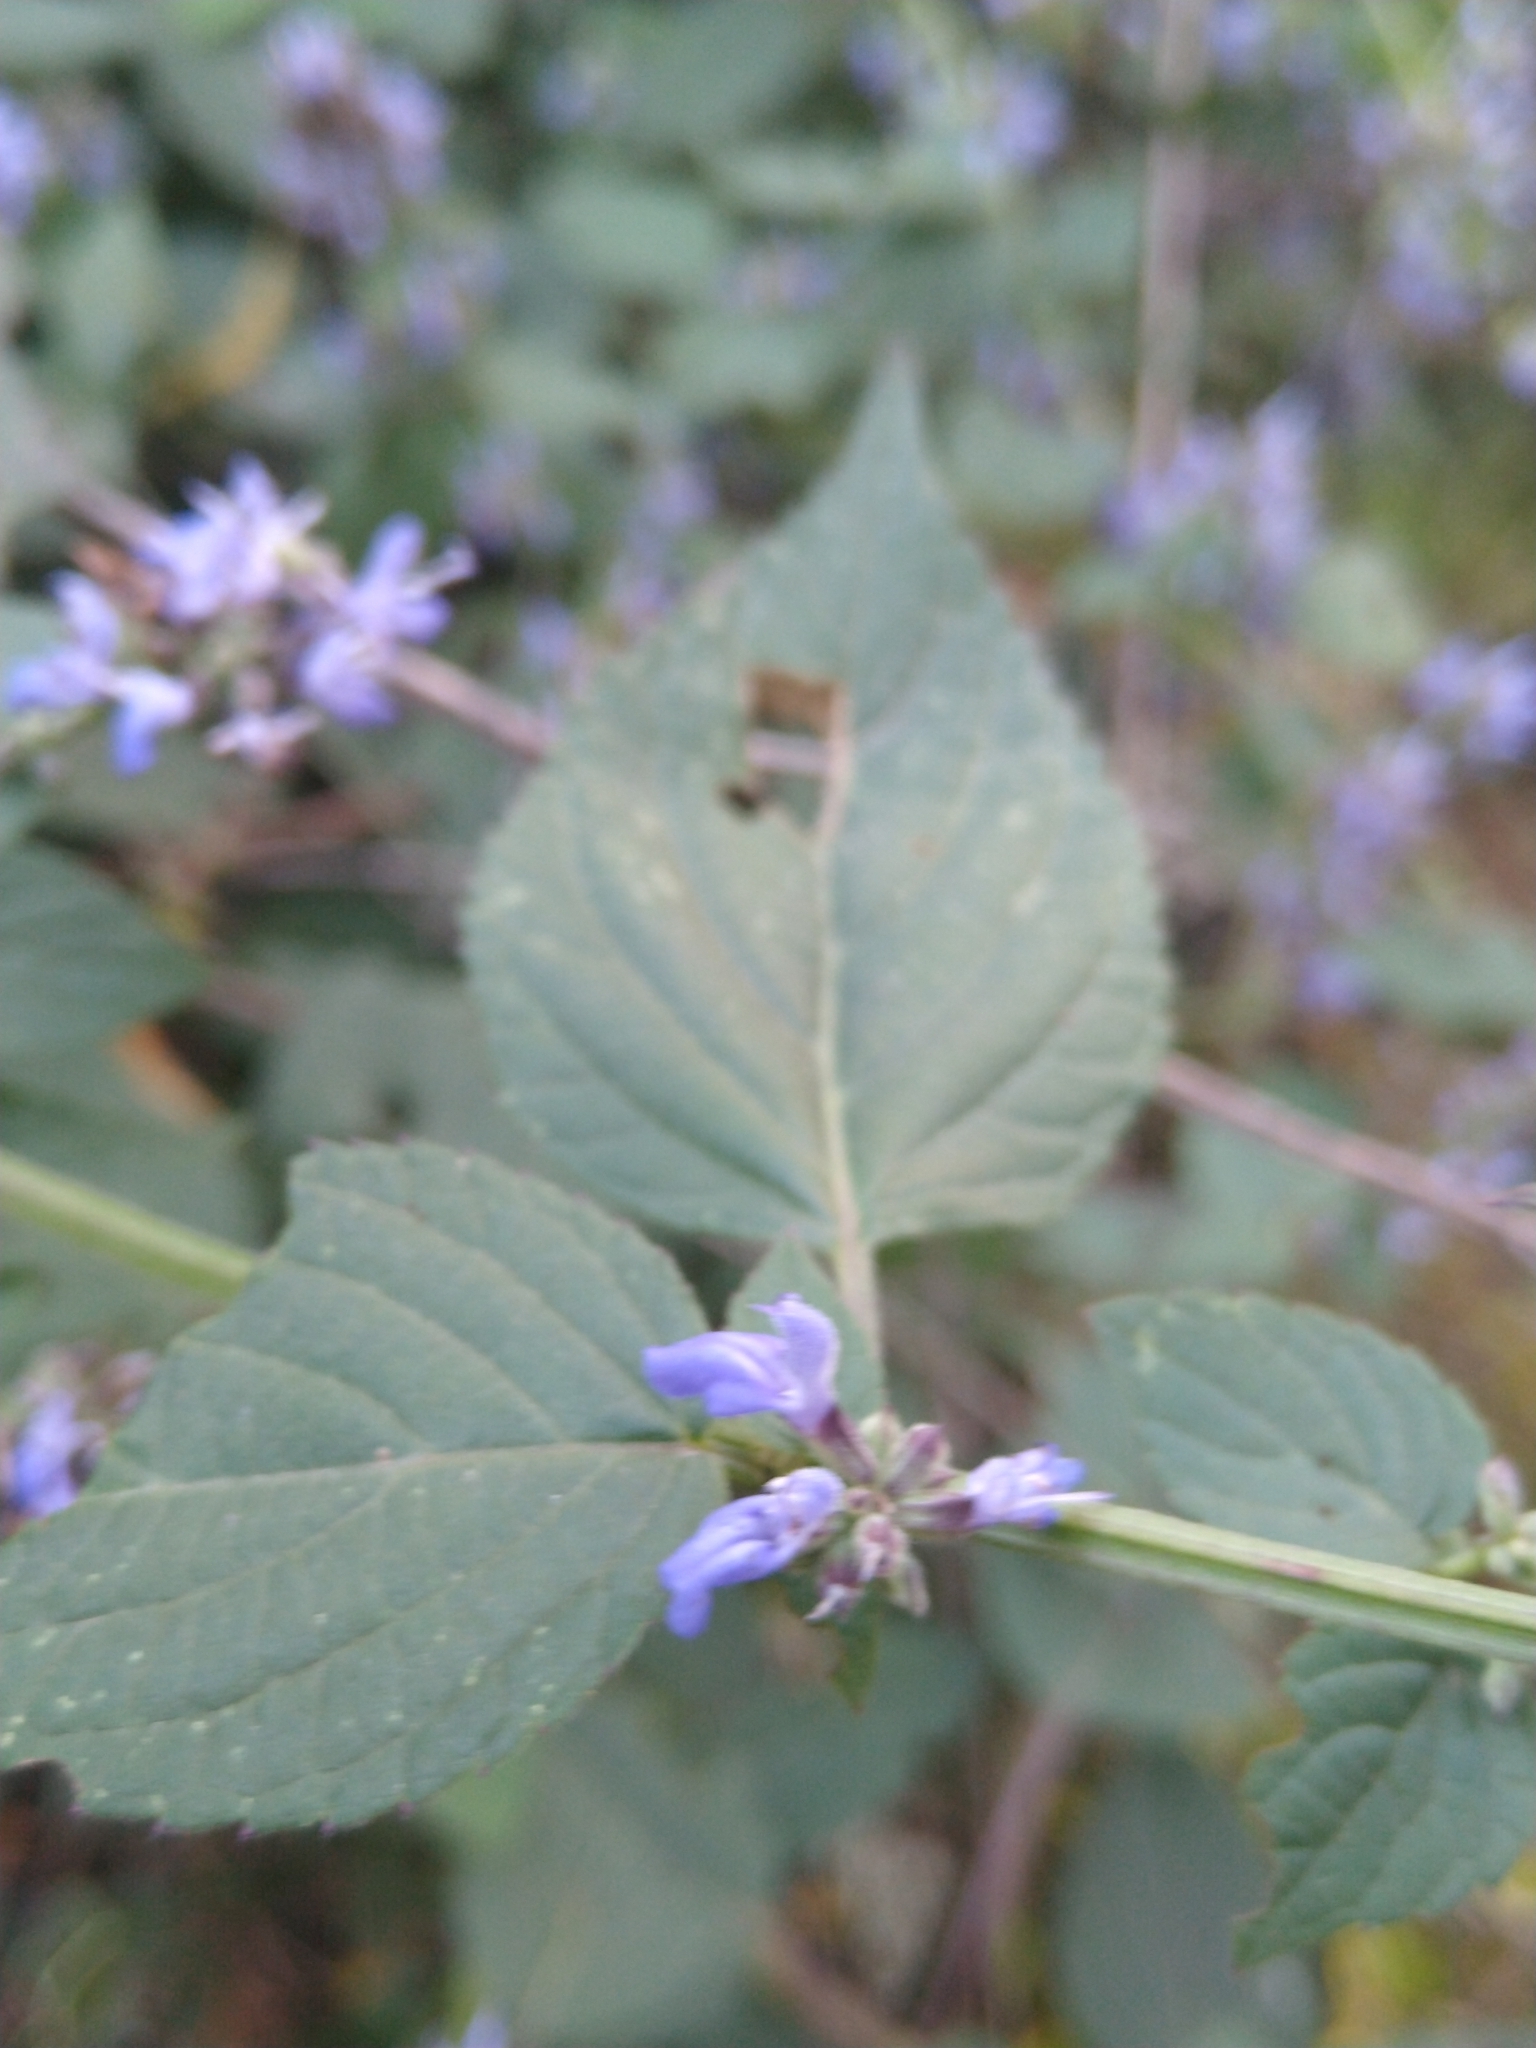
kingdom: Plantae
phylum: Tracheophyta
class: Magnoliopsida
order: Lamiales
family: Lamiaceae
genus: Salvia
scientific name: Salvia polystachia
